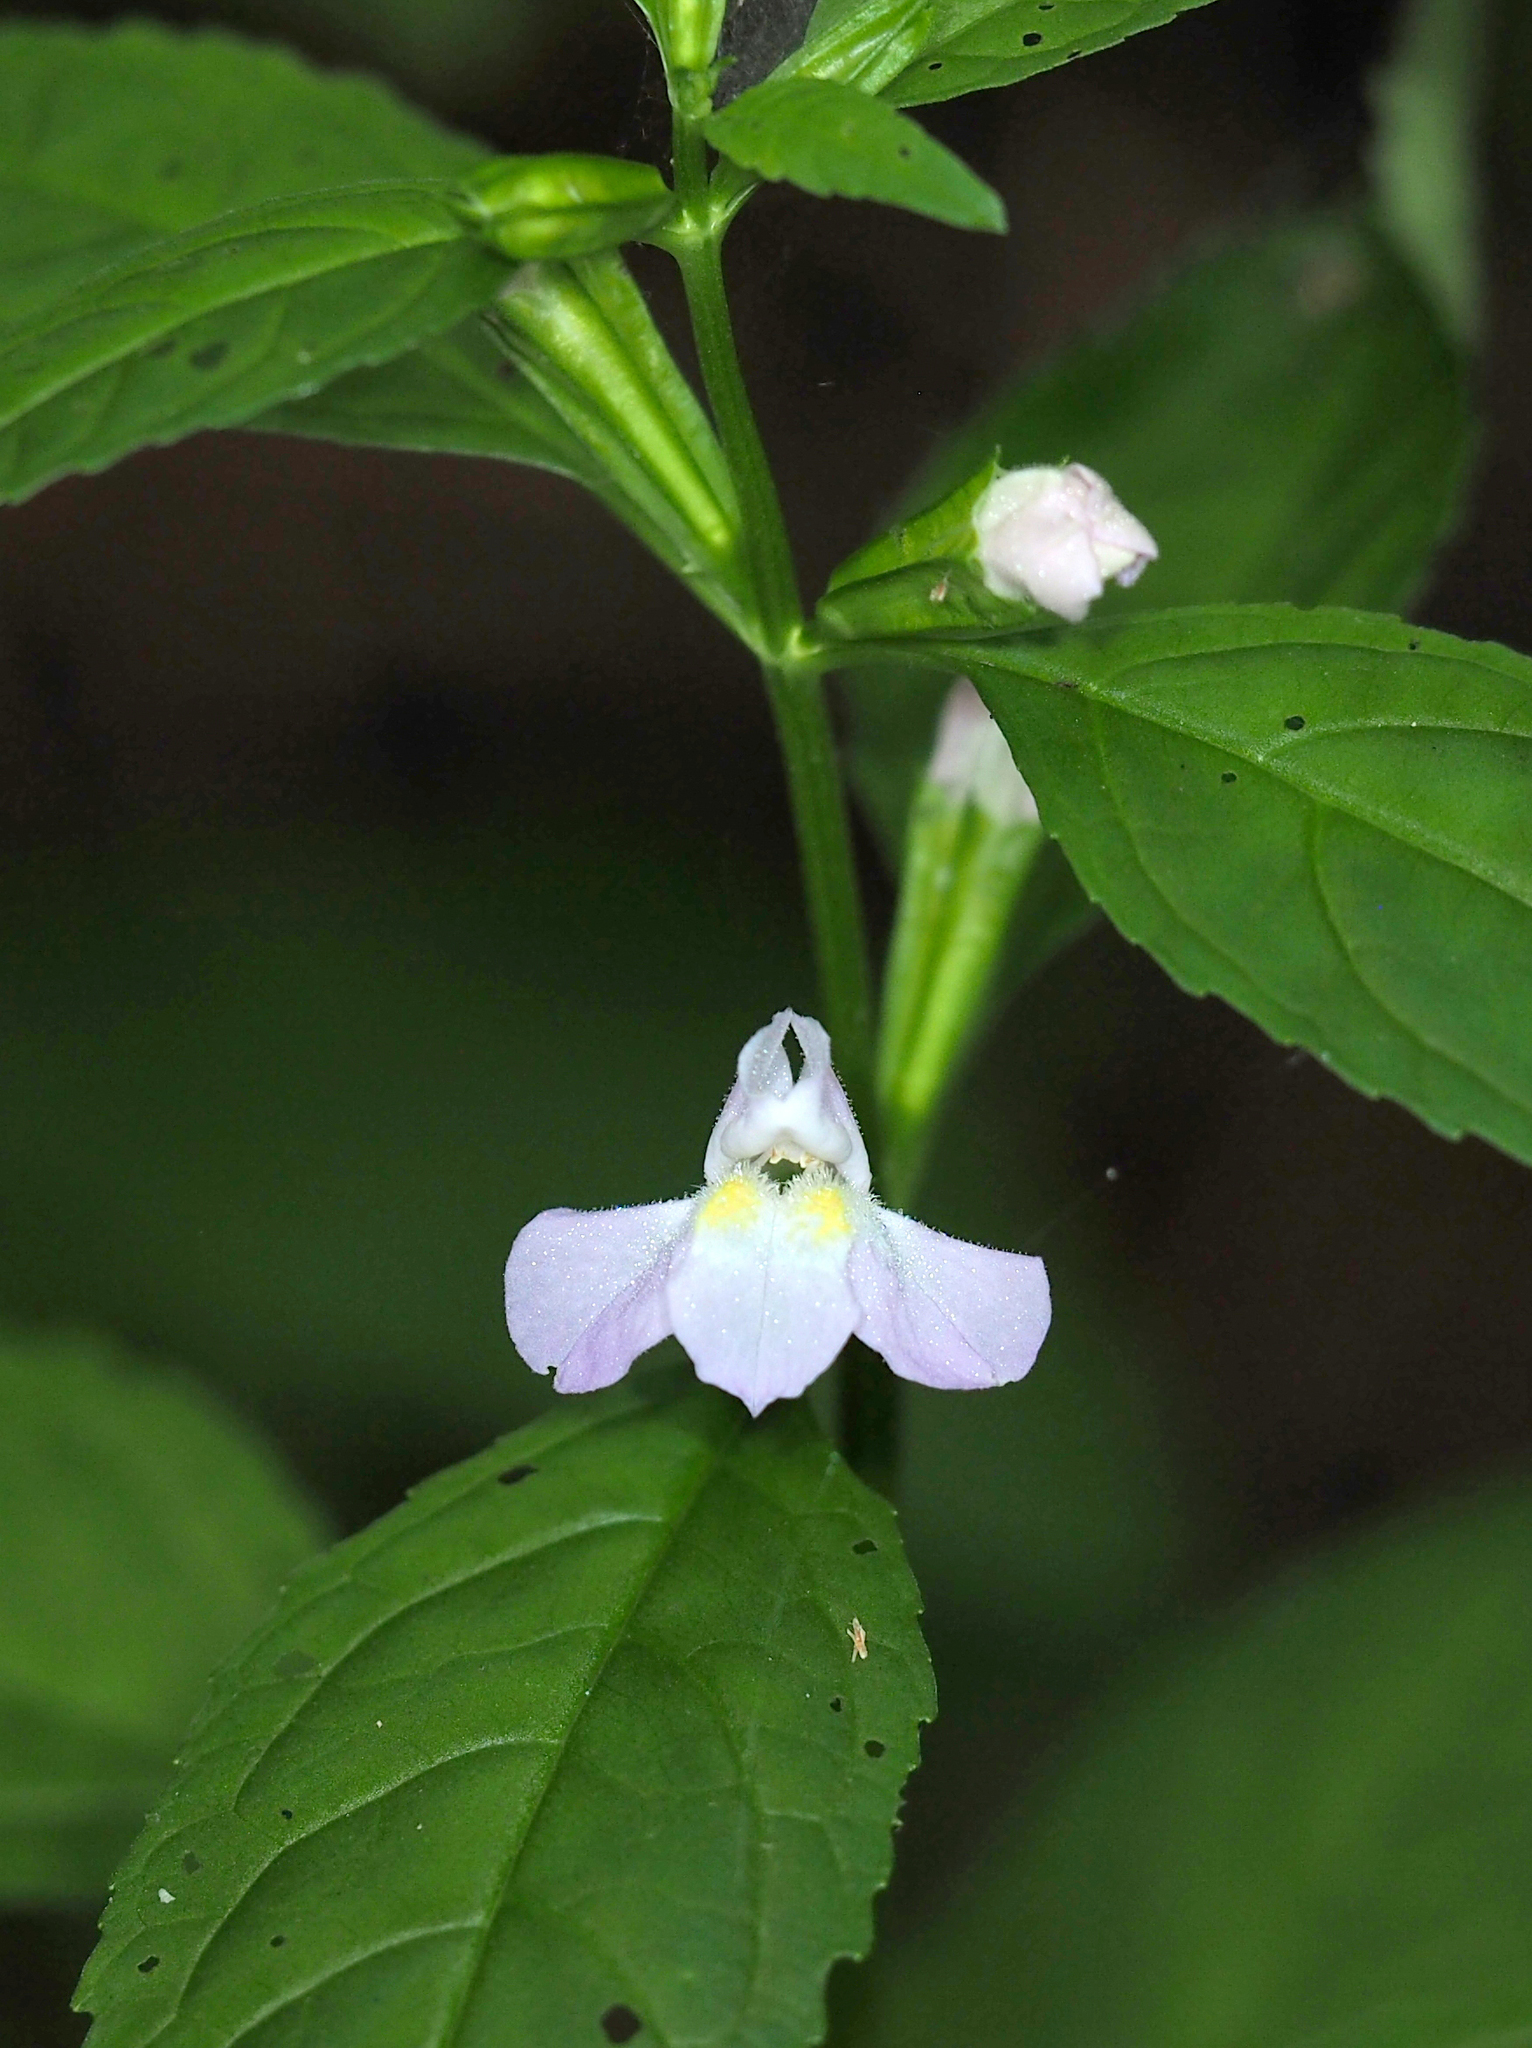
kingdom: Plantae
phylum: Tracheophyta
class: Magnoliopsida
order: Lamiales
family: Phrymaceae
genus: Mimulus
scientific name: Mimulus alatus
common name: Sharp-wing monkey-flower
